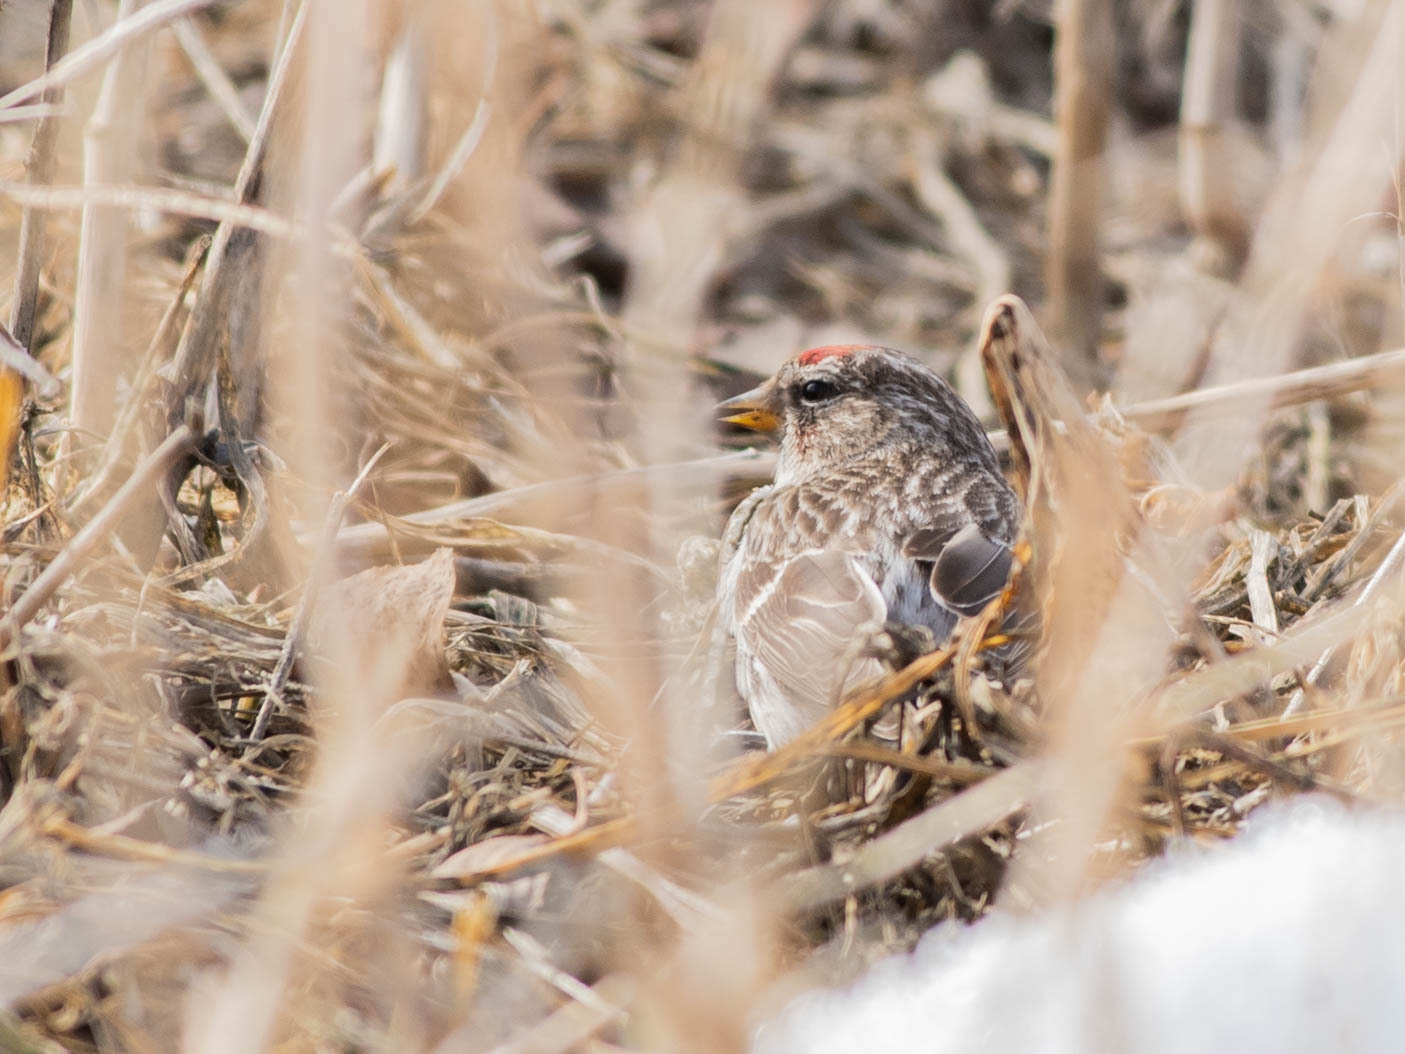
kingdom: Animalia
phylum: Chordata
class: Aves
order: Passeriformes
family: Fringillidae
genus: Acanthis
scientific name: Acanthis flammea
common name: Common redpoll
